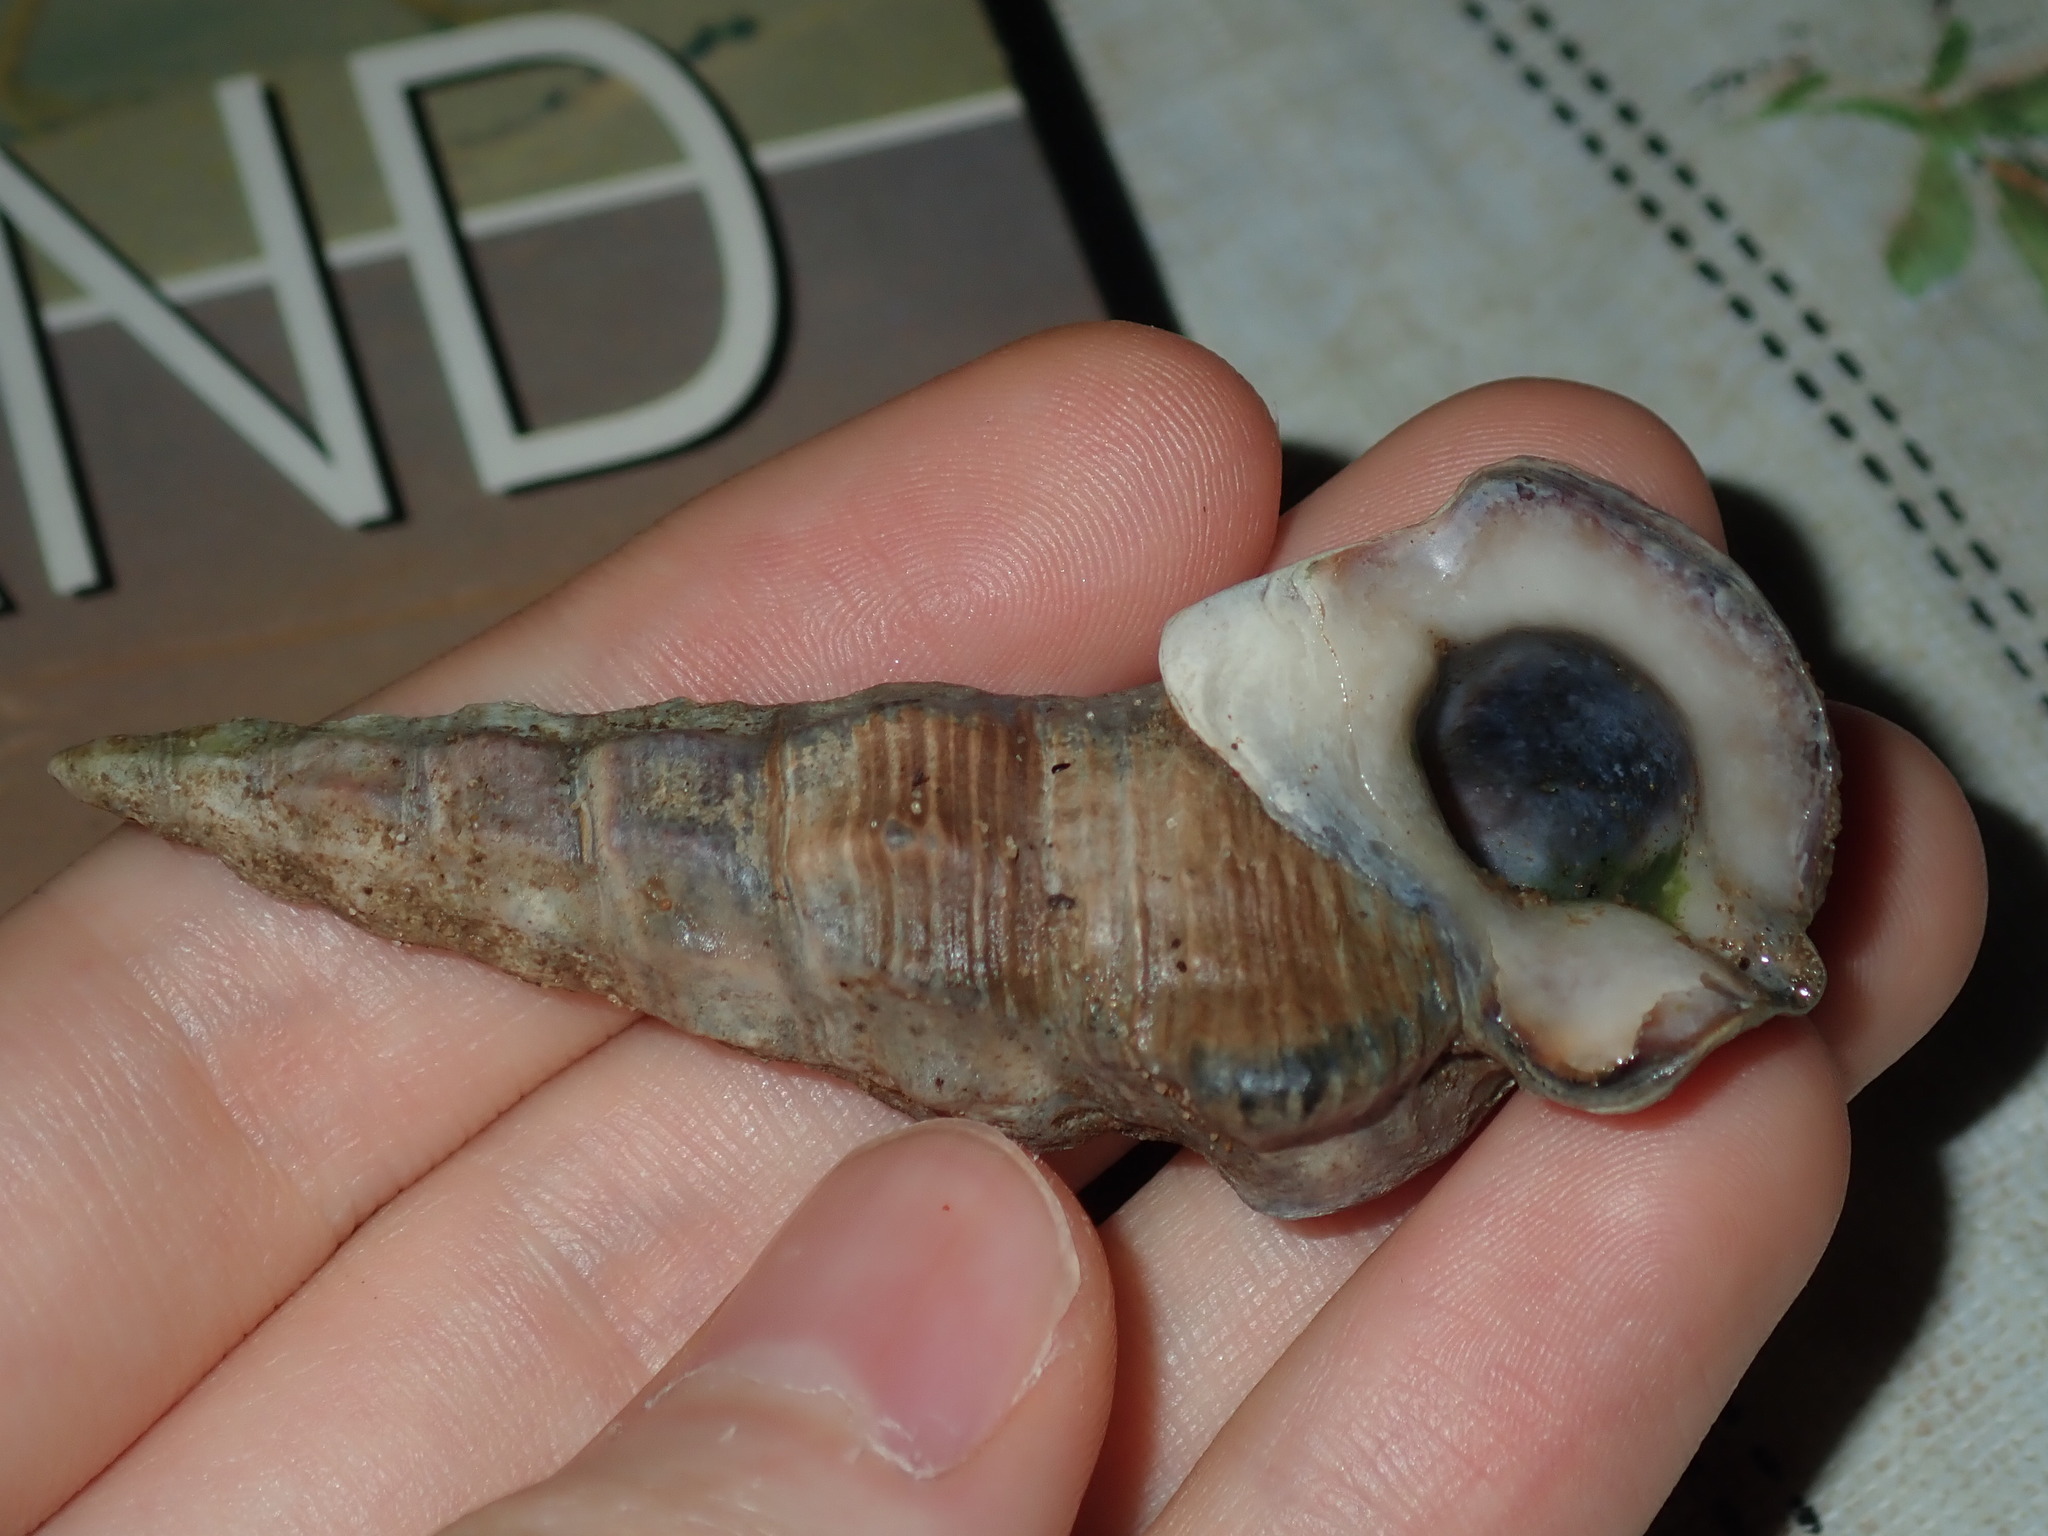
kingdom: Animalia
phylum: Mollusca
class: Gastropoda
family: Batillariidae
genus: Pyrazus
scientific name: Pyrazus ebeninus
